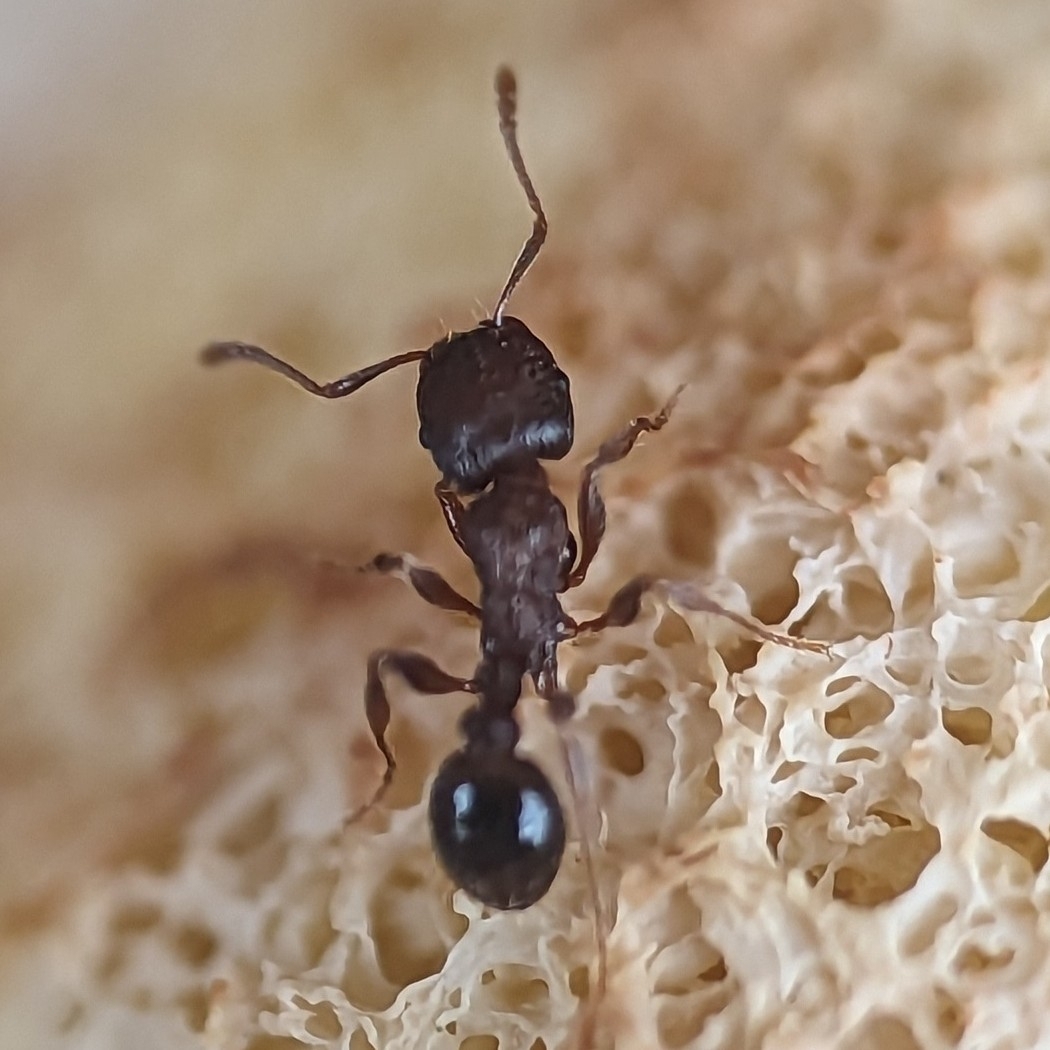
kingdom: Animalia
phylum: Arthropoda
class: Insecta
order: Hymenoptera
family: Formicidae
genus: Tetramorium
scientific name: Tetramorium immigrans
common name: Pavement ant
